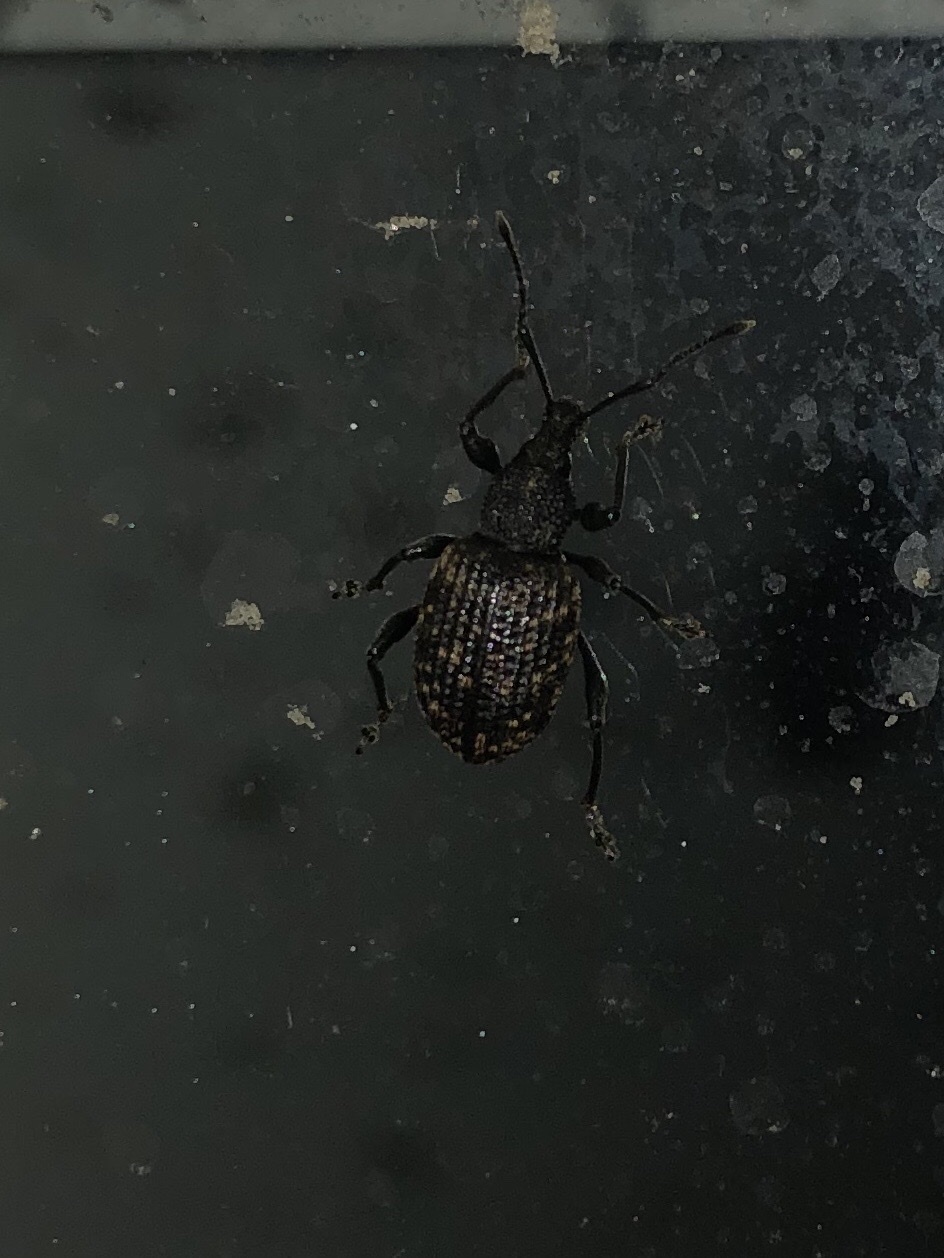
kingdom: Animalia
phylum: Arthropoda
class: Insecta
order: Coleoptera
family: Curculionidae
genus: Otiorhynchus
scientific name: Otiorhynchus sulcatus
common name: Black vine weevil
